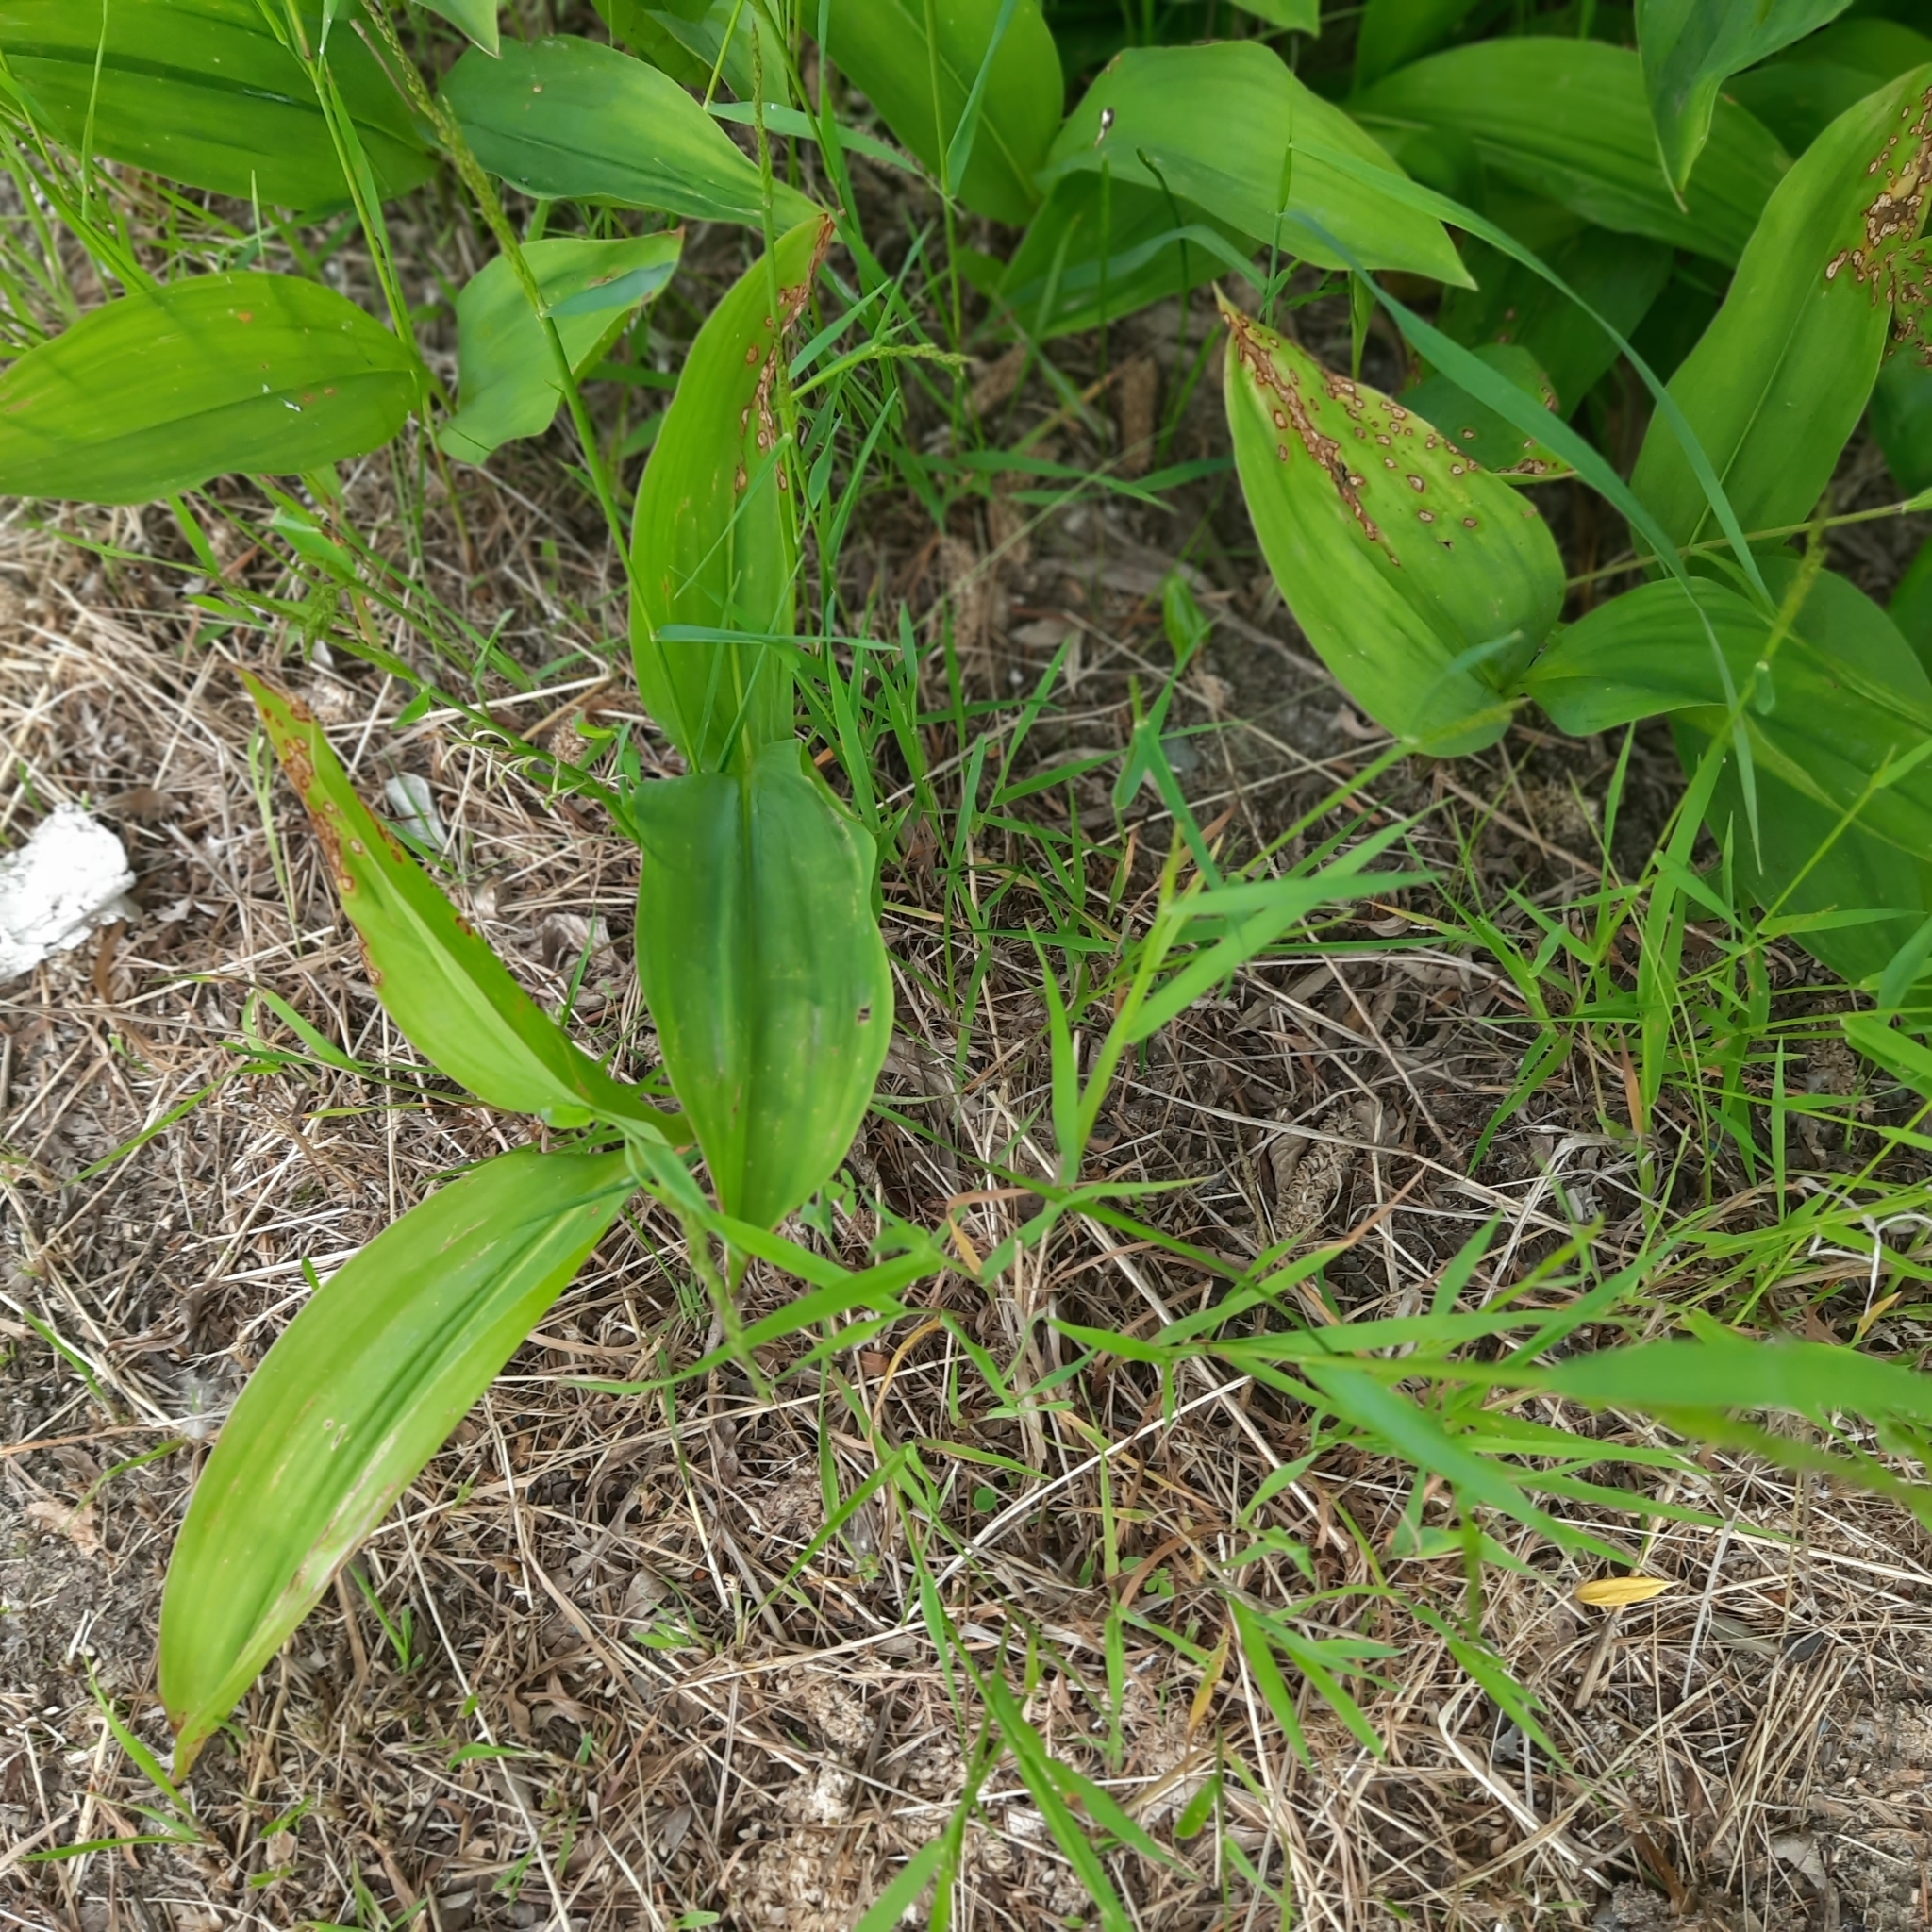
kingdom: Plantae
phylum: Tracheophyta
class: Liliopsida
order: Asparagales
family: Asparagaceae
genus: Convallaria
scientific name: Convallaria majalis
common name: Lily-of-the-valley
